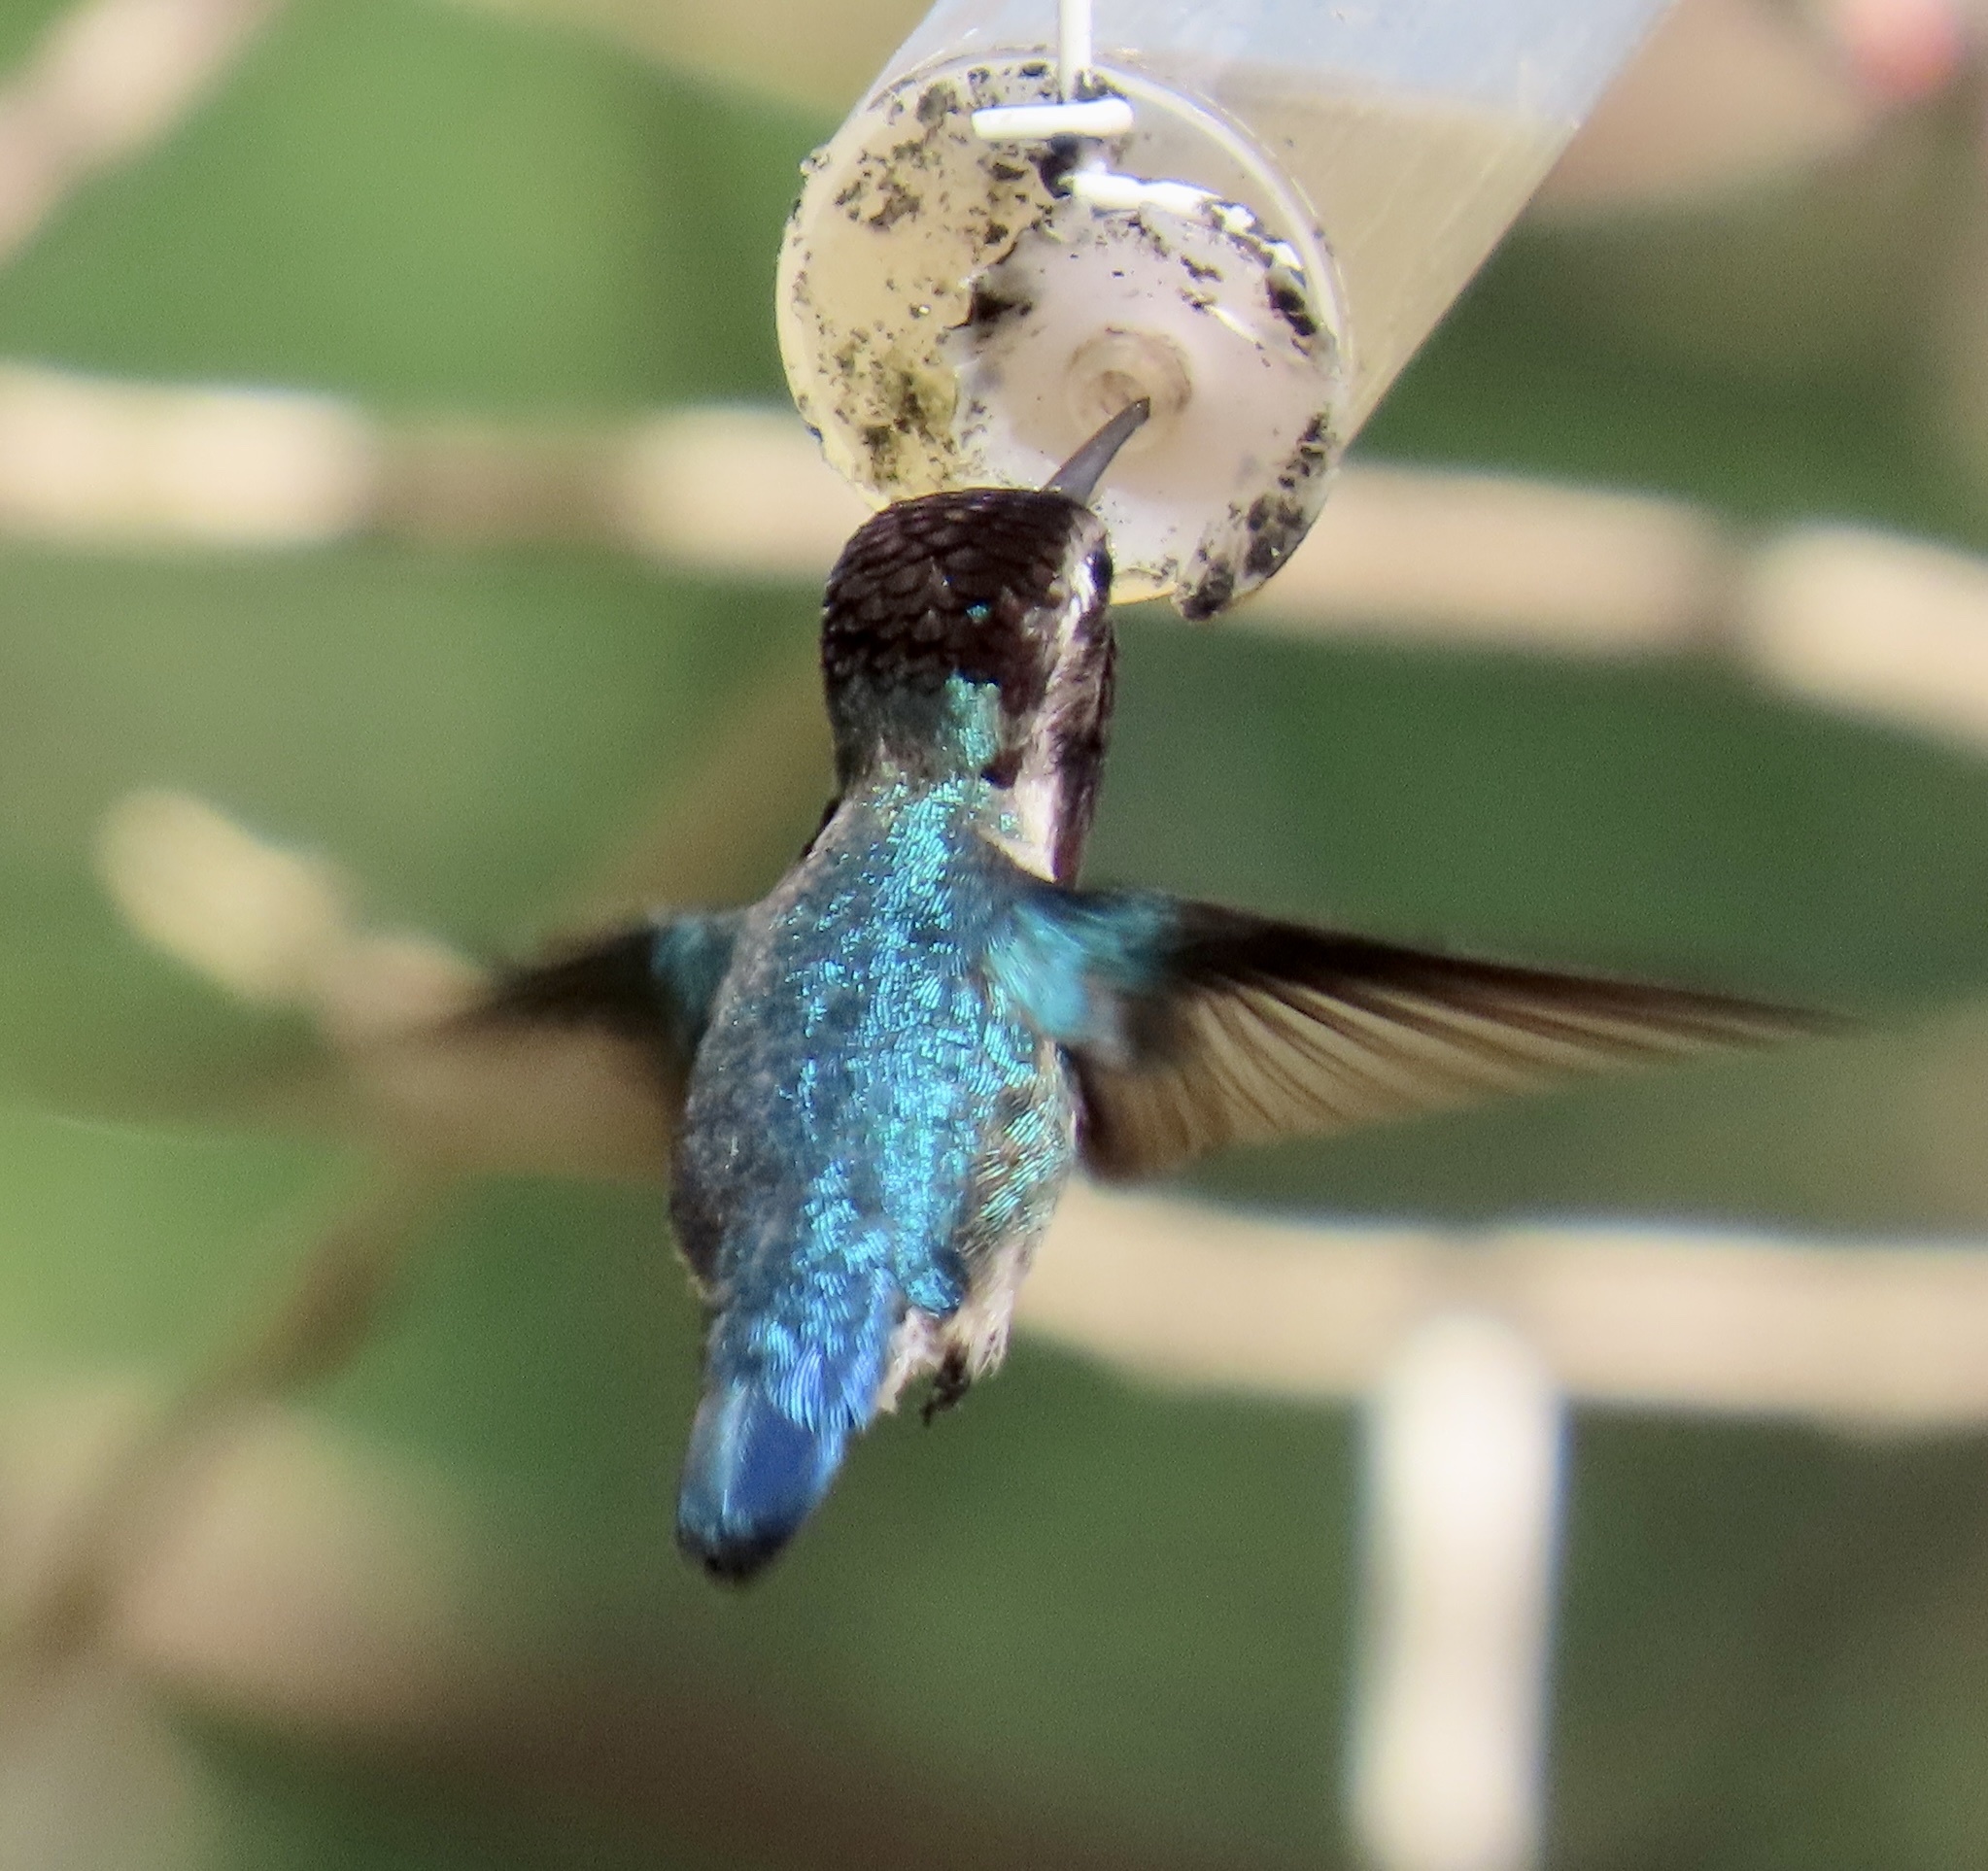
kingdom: Animalia
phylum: Chordata
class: Aves
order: Apodiformes
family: Trochilidae
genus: Mellisuga
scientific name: Mellisuga helenae
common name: Bee hummingbird
